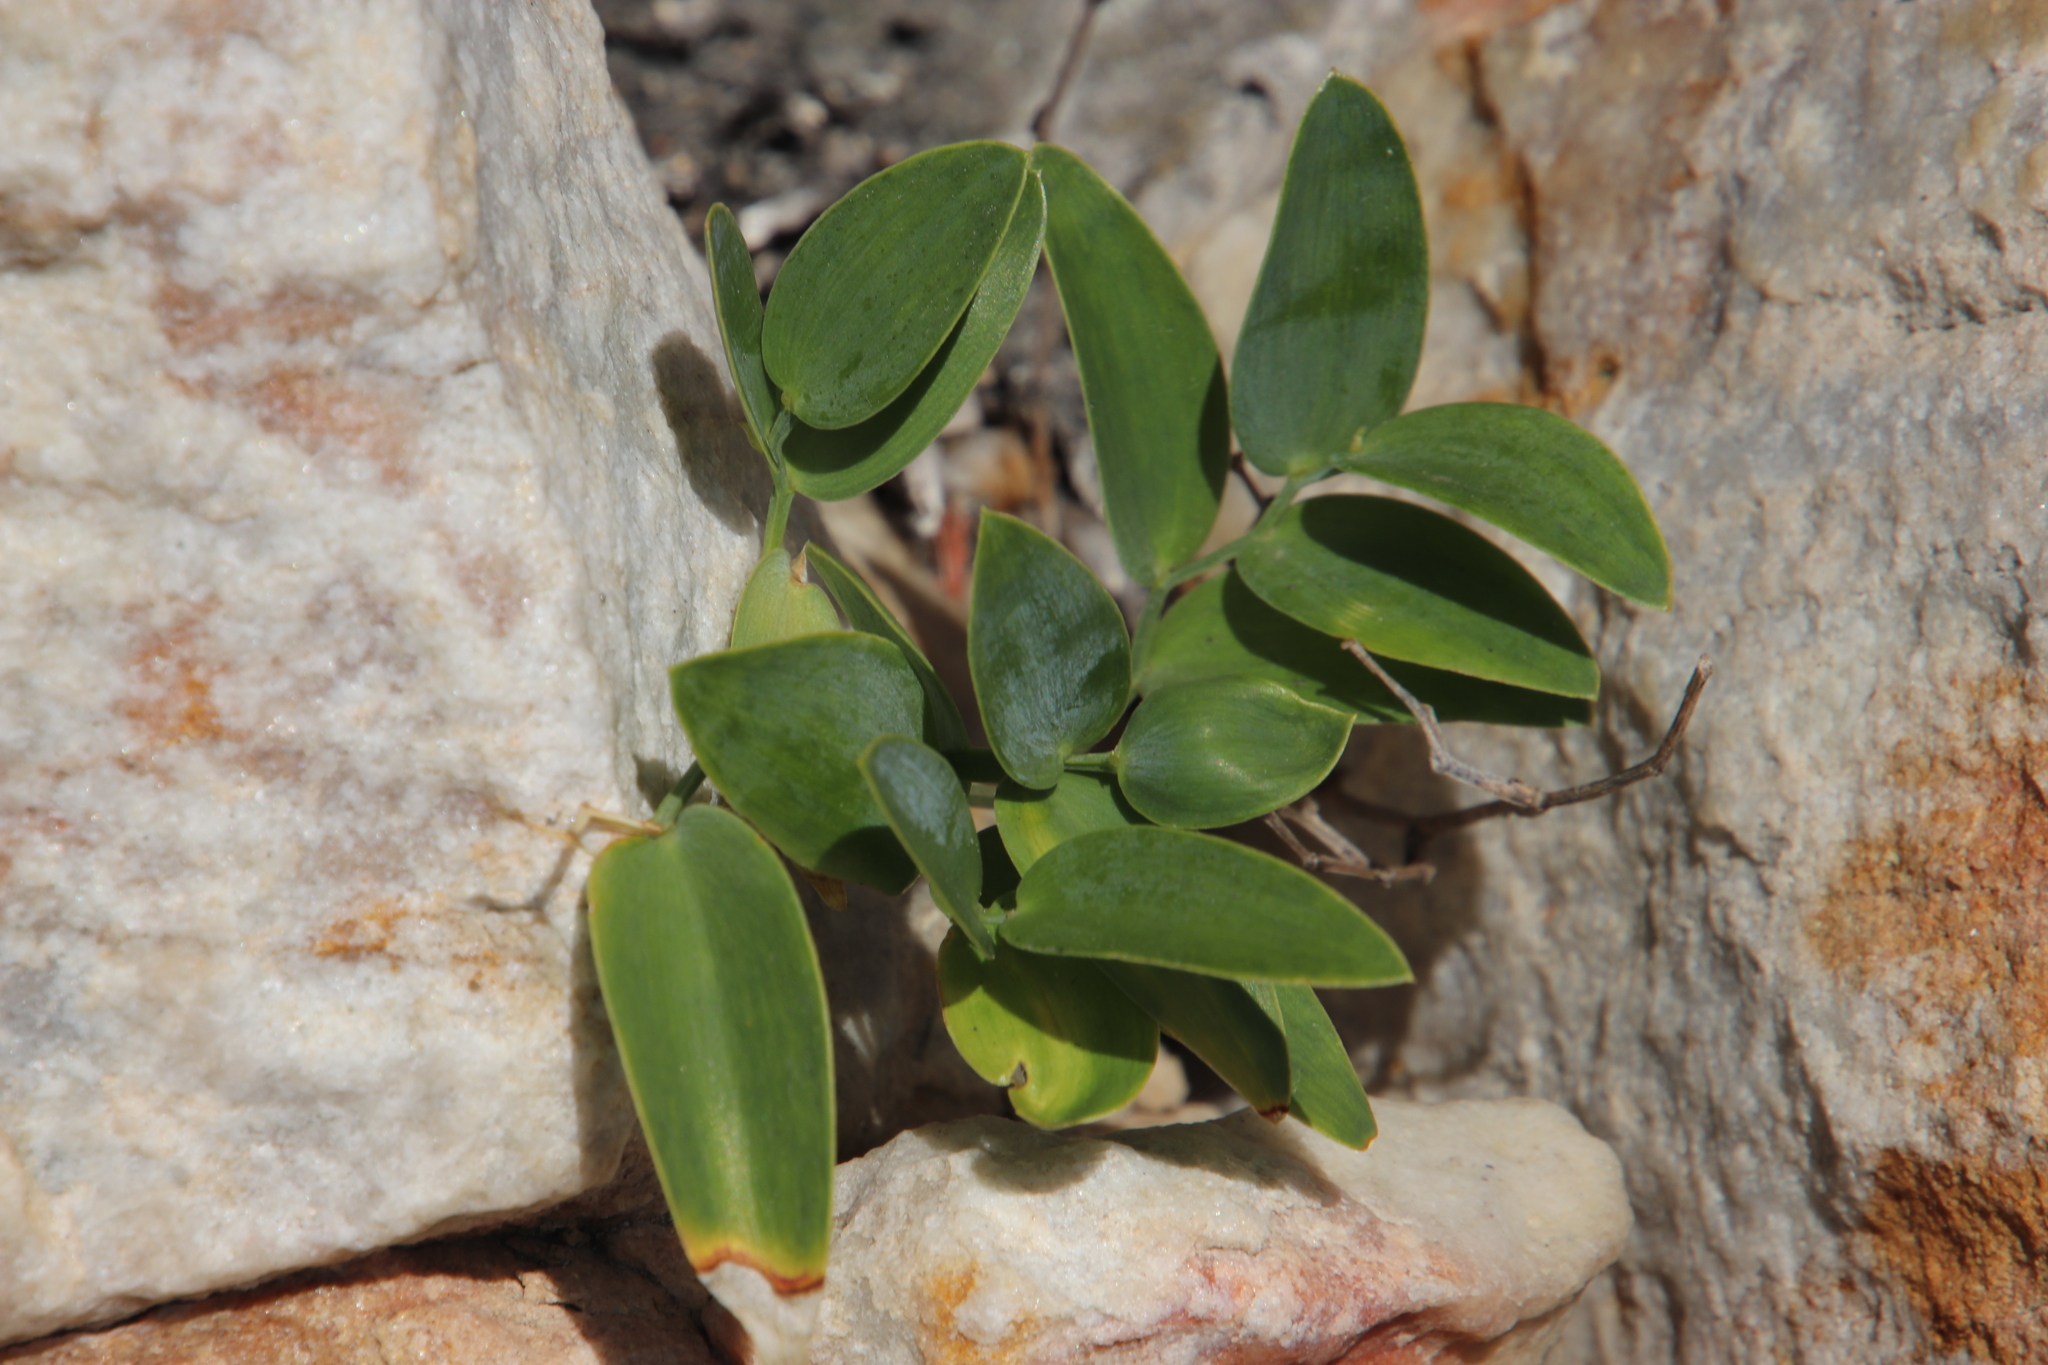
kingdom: Plantae
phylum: Tracheophyta
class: Liliopsida
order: Asparagales
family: Asparagaceae
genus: Asparagus
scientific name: Asparagus ovatus
